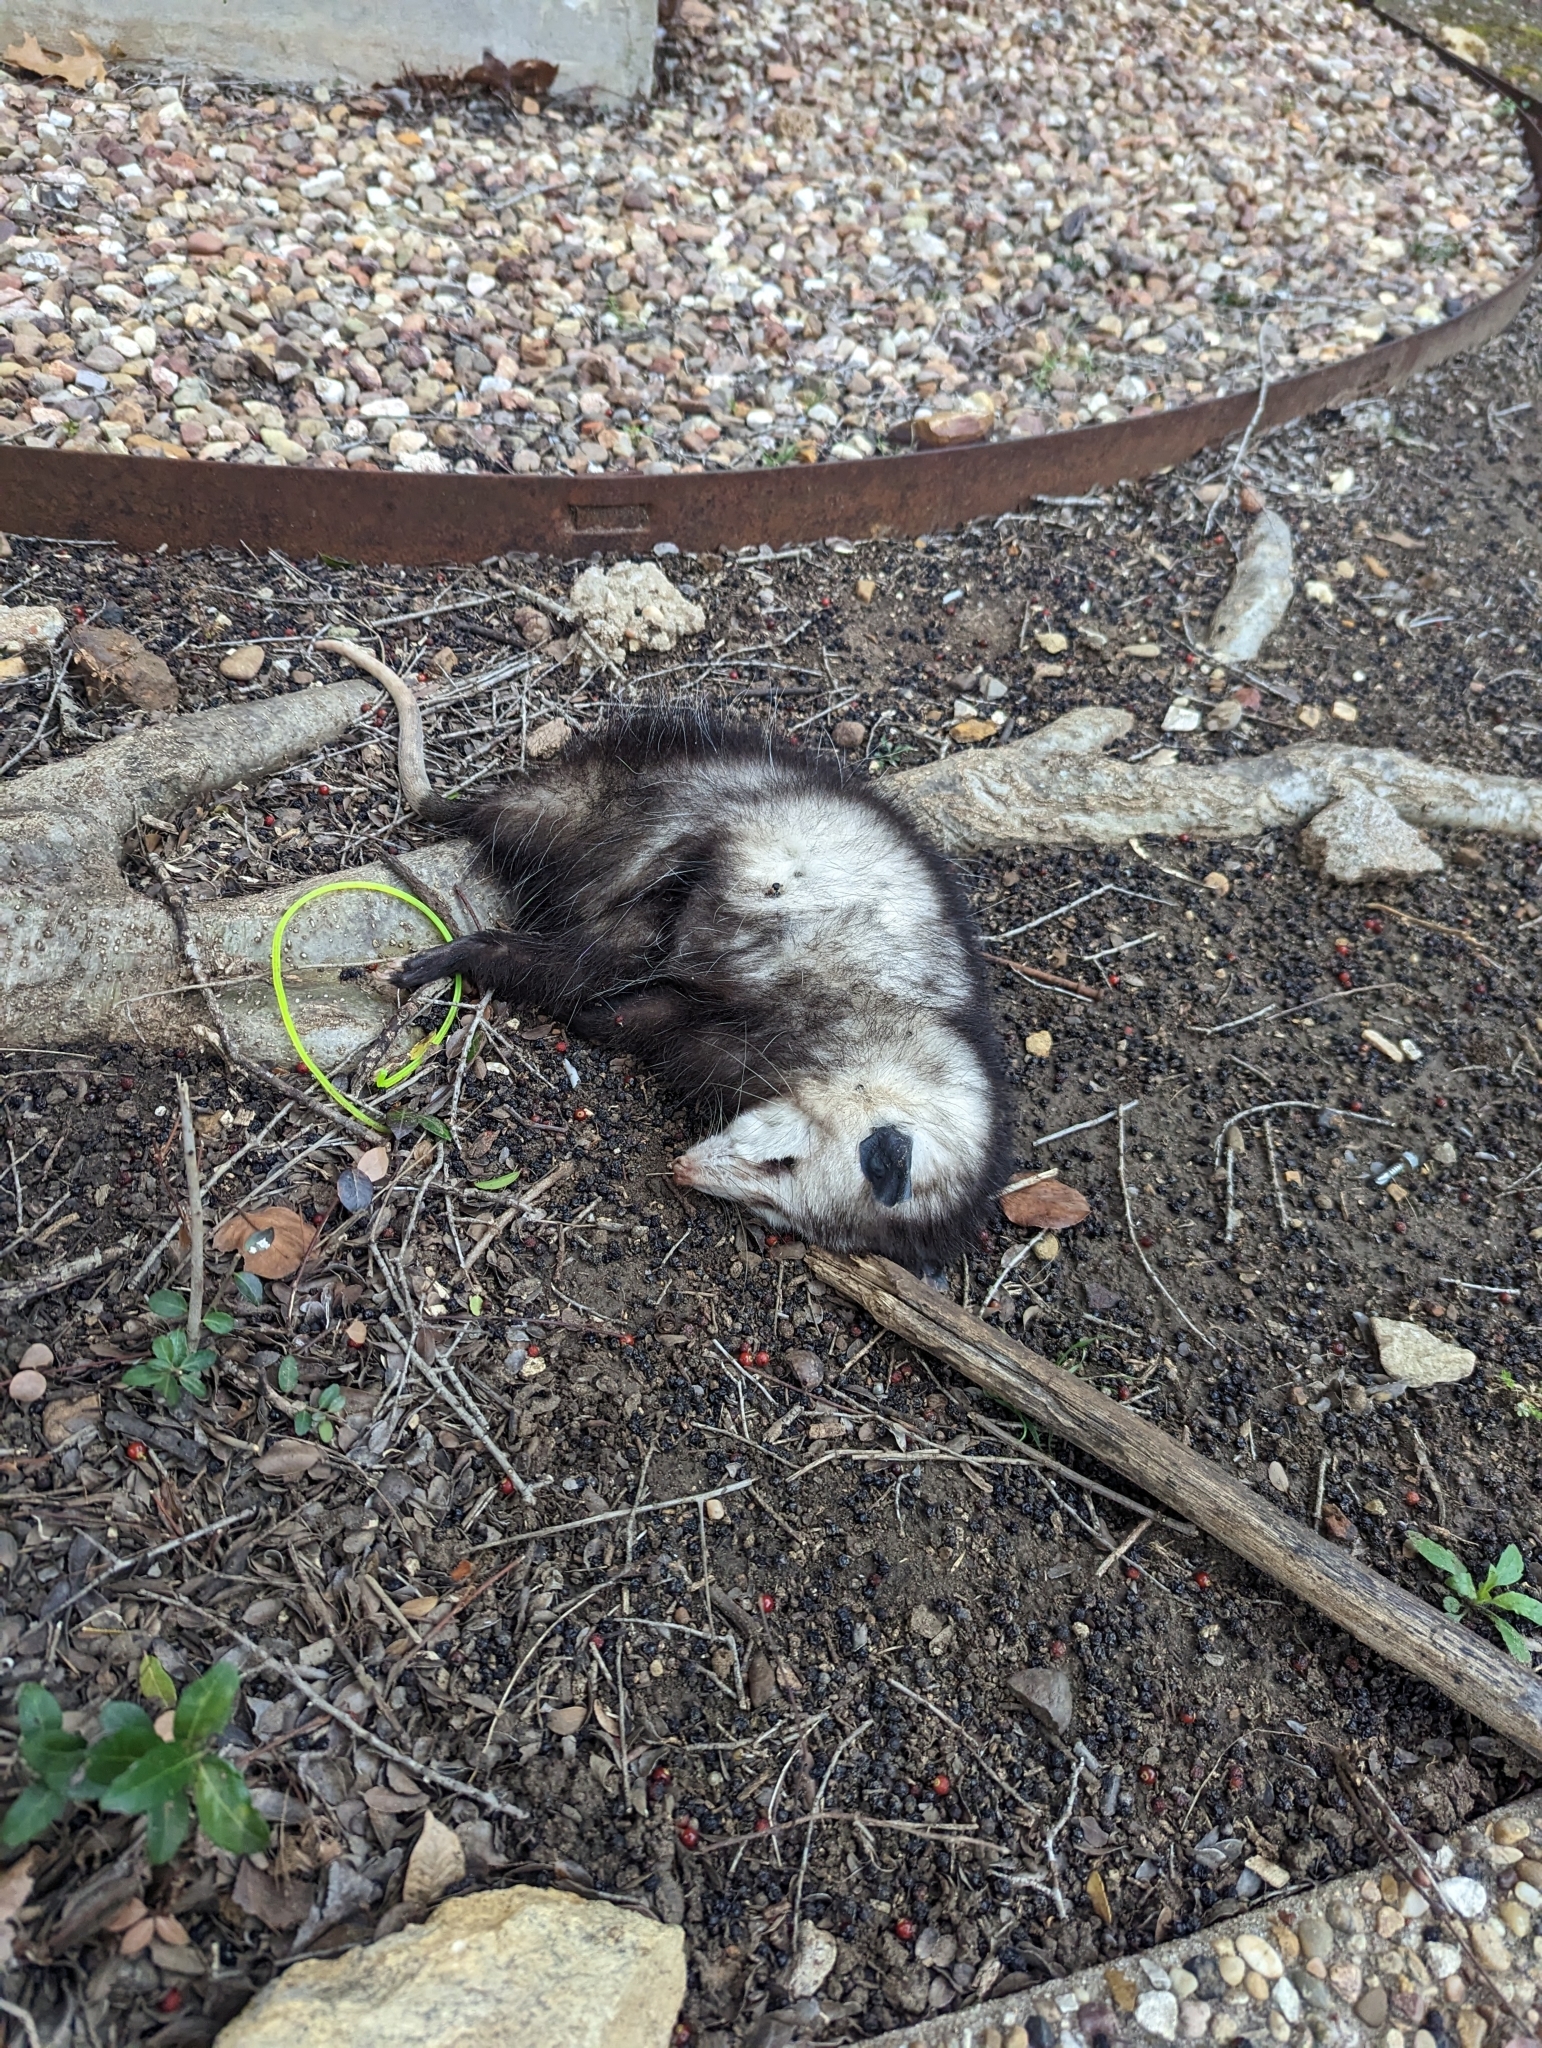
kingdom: Animalia
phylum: Chordata
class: Mammalia
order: Didelphimorphia
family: Didelphidae
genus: Didelphis
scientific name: Didelphis virginiana
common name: Virginia opossum
